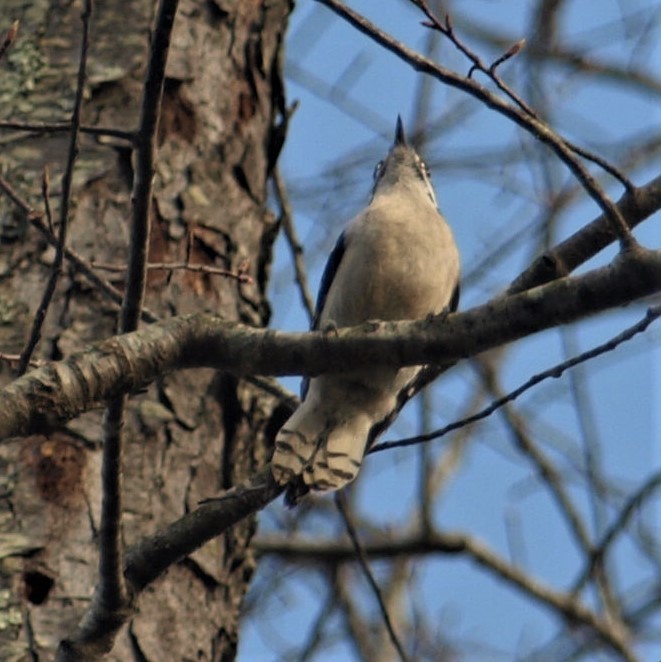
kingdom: Animalia
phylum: Chordata
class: Aves
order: Piciformes
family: Picidae
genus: Dryobates
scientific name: Dryobates pubescens
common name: Downy woodpecker
